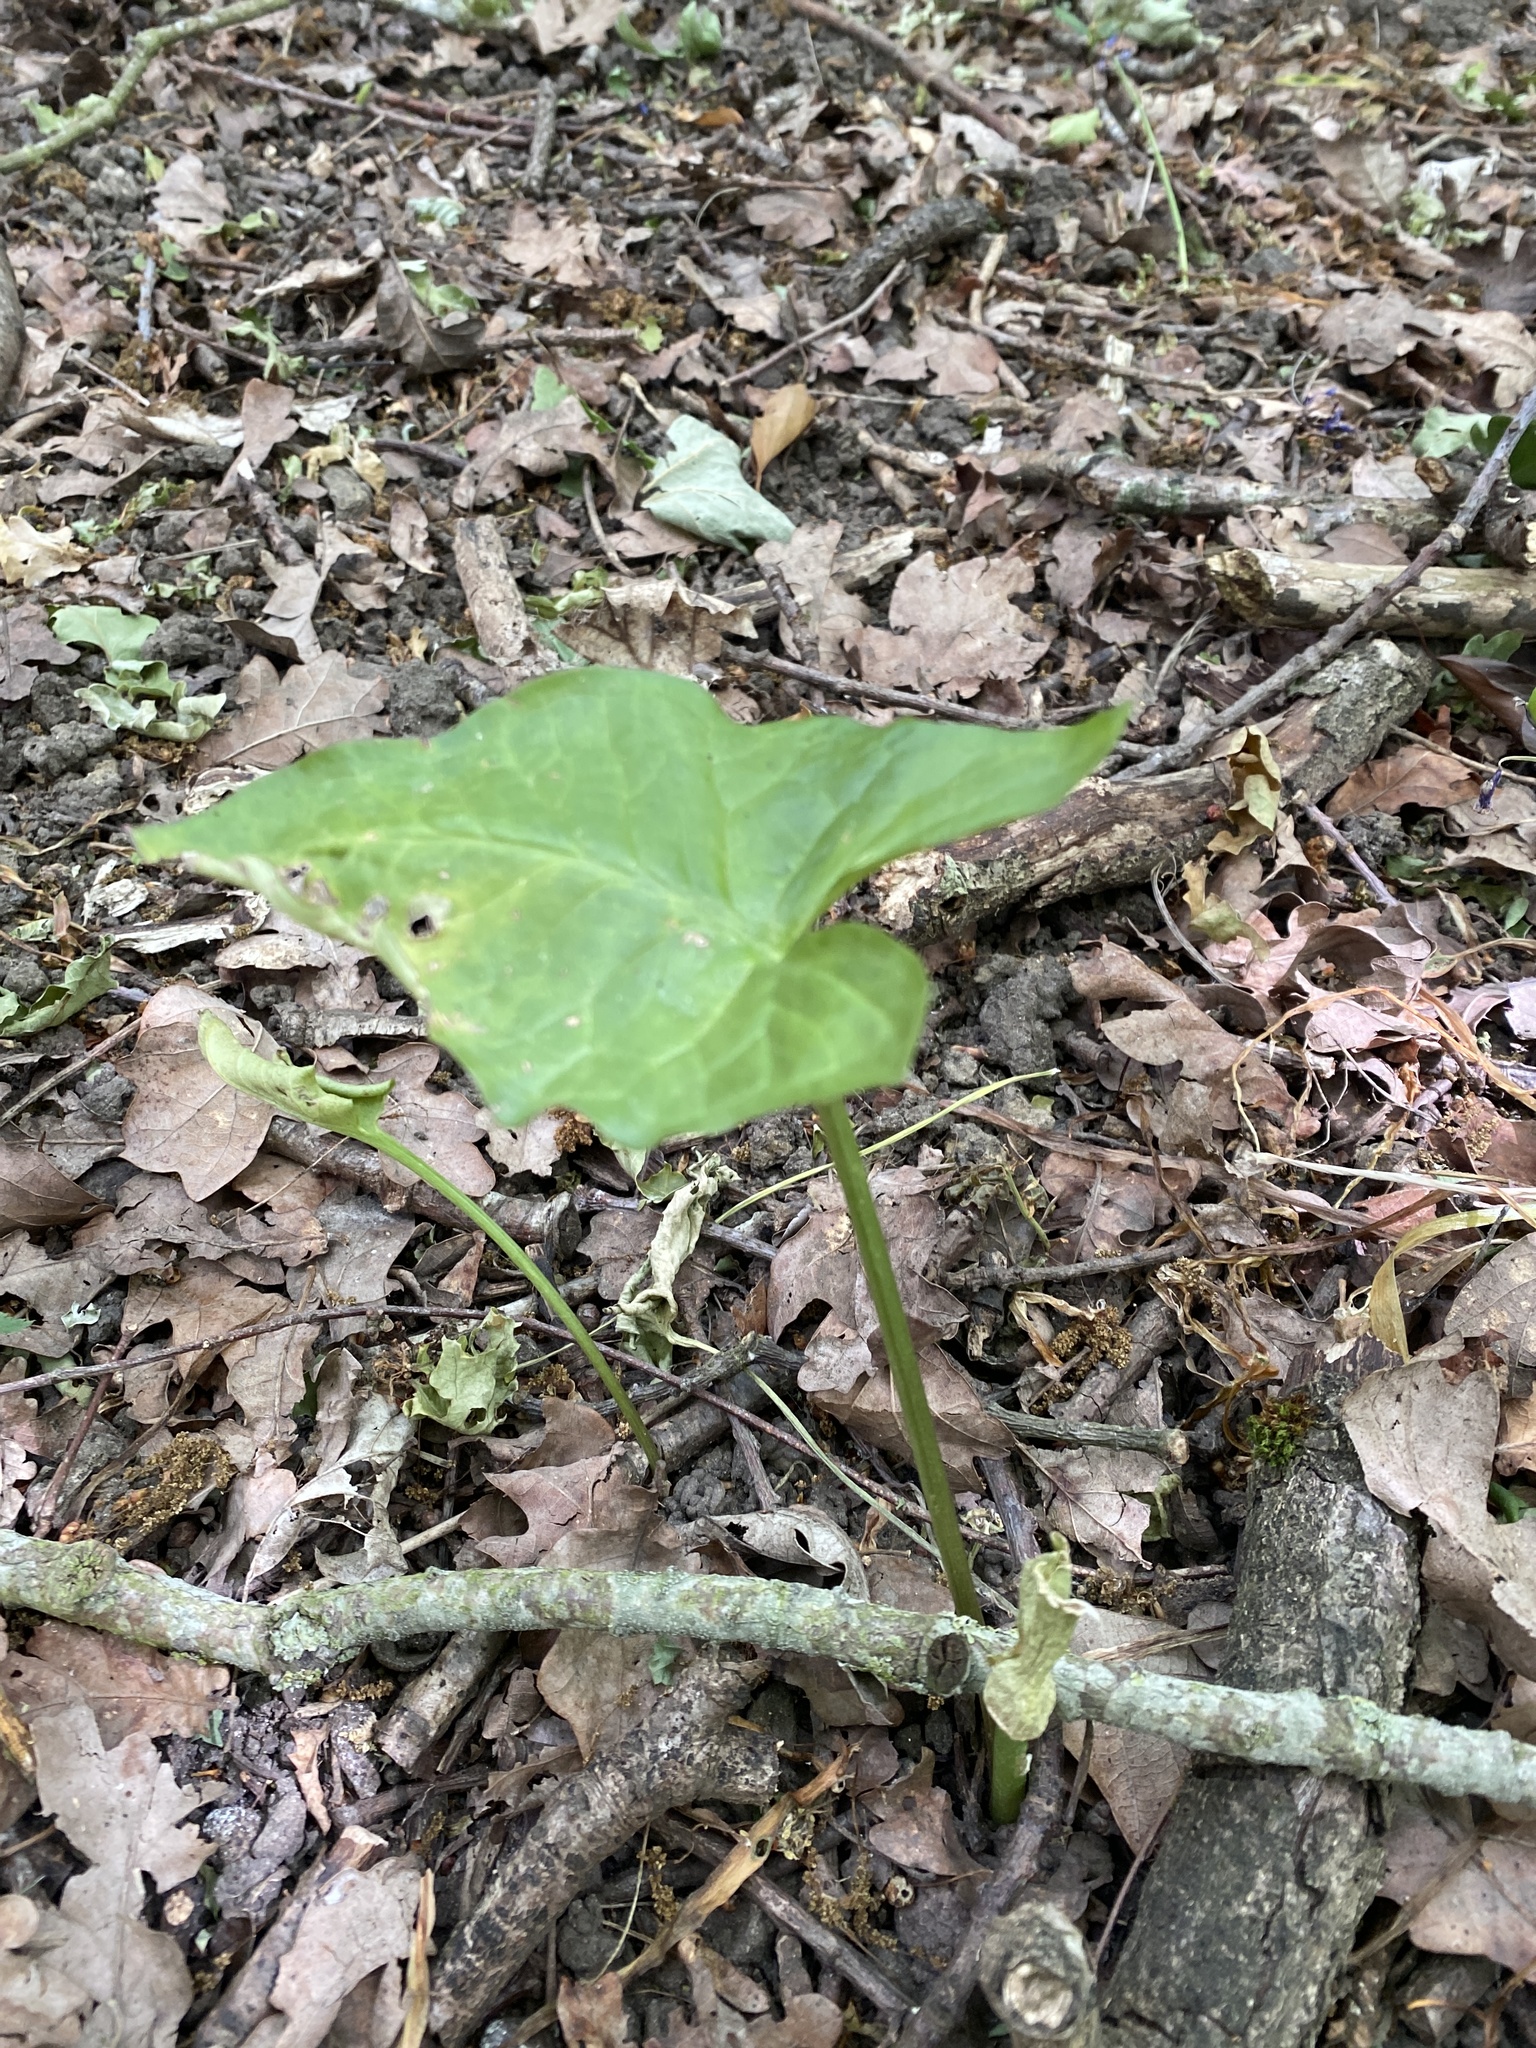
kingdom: Plantae
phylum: Tracheophyta
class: Liliopsida
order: Alismatales
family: Araceae
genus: Arum
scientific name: Arum maculatum
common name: Lords-and-ladies
